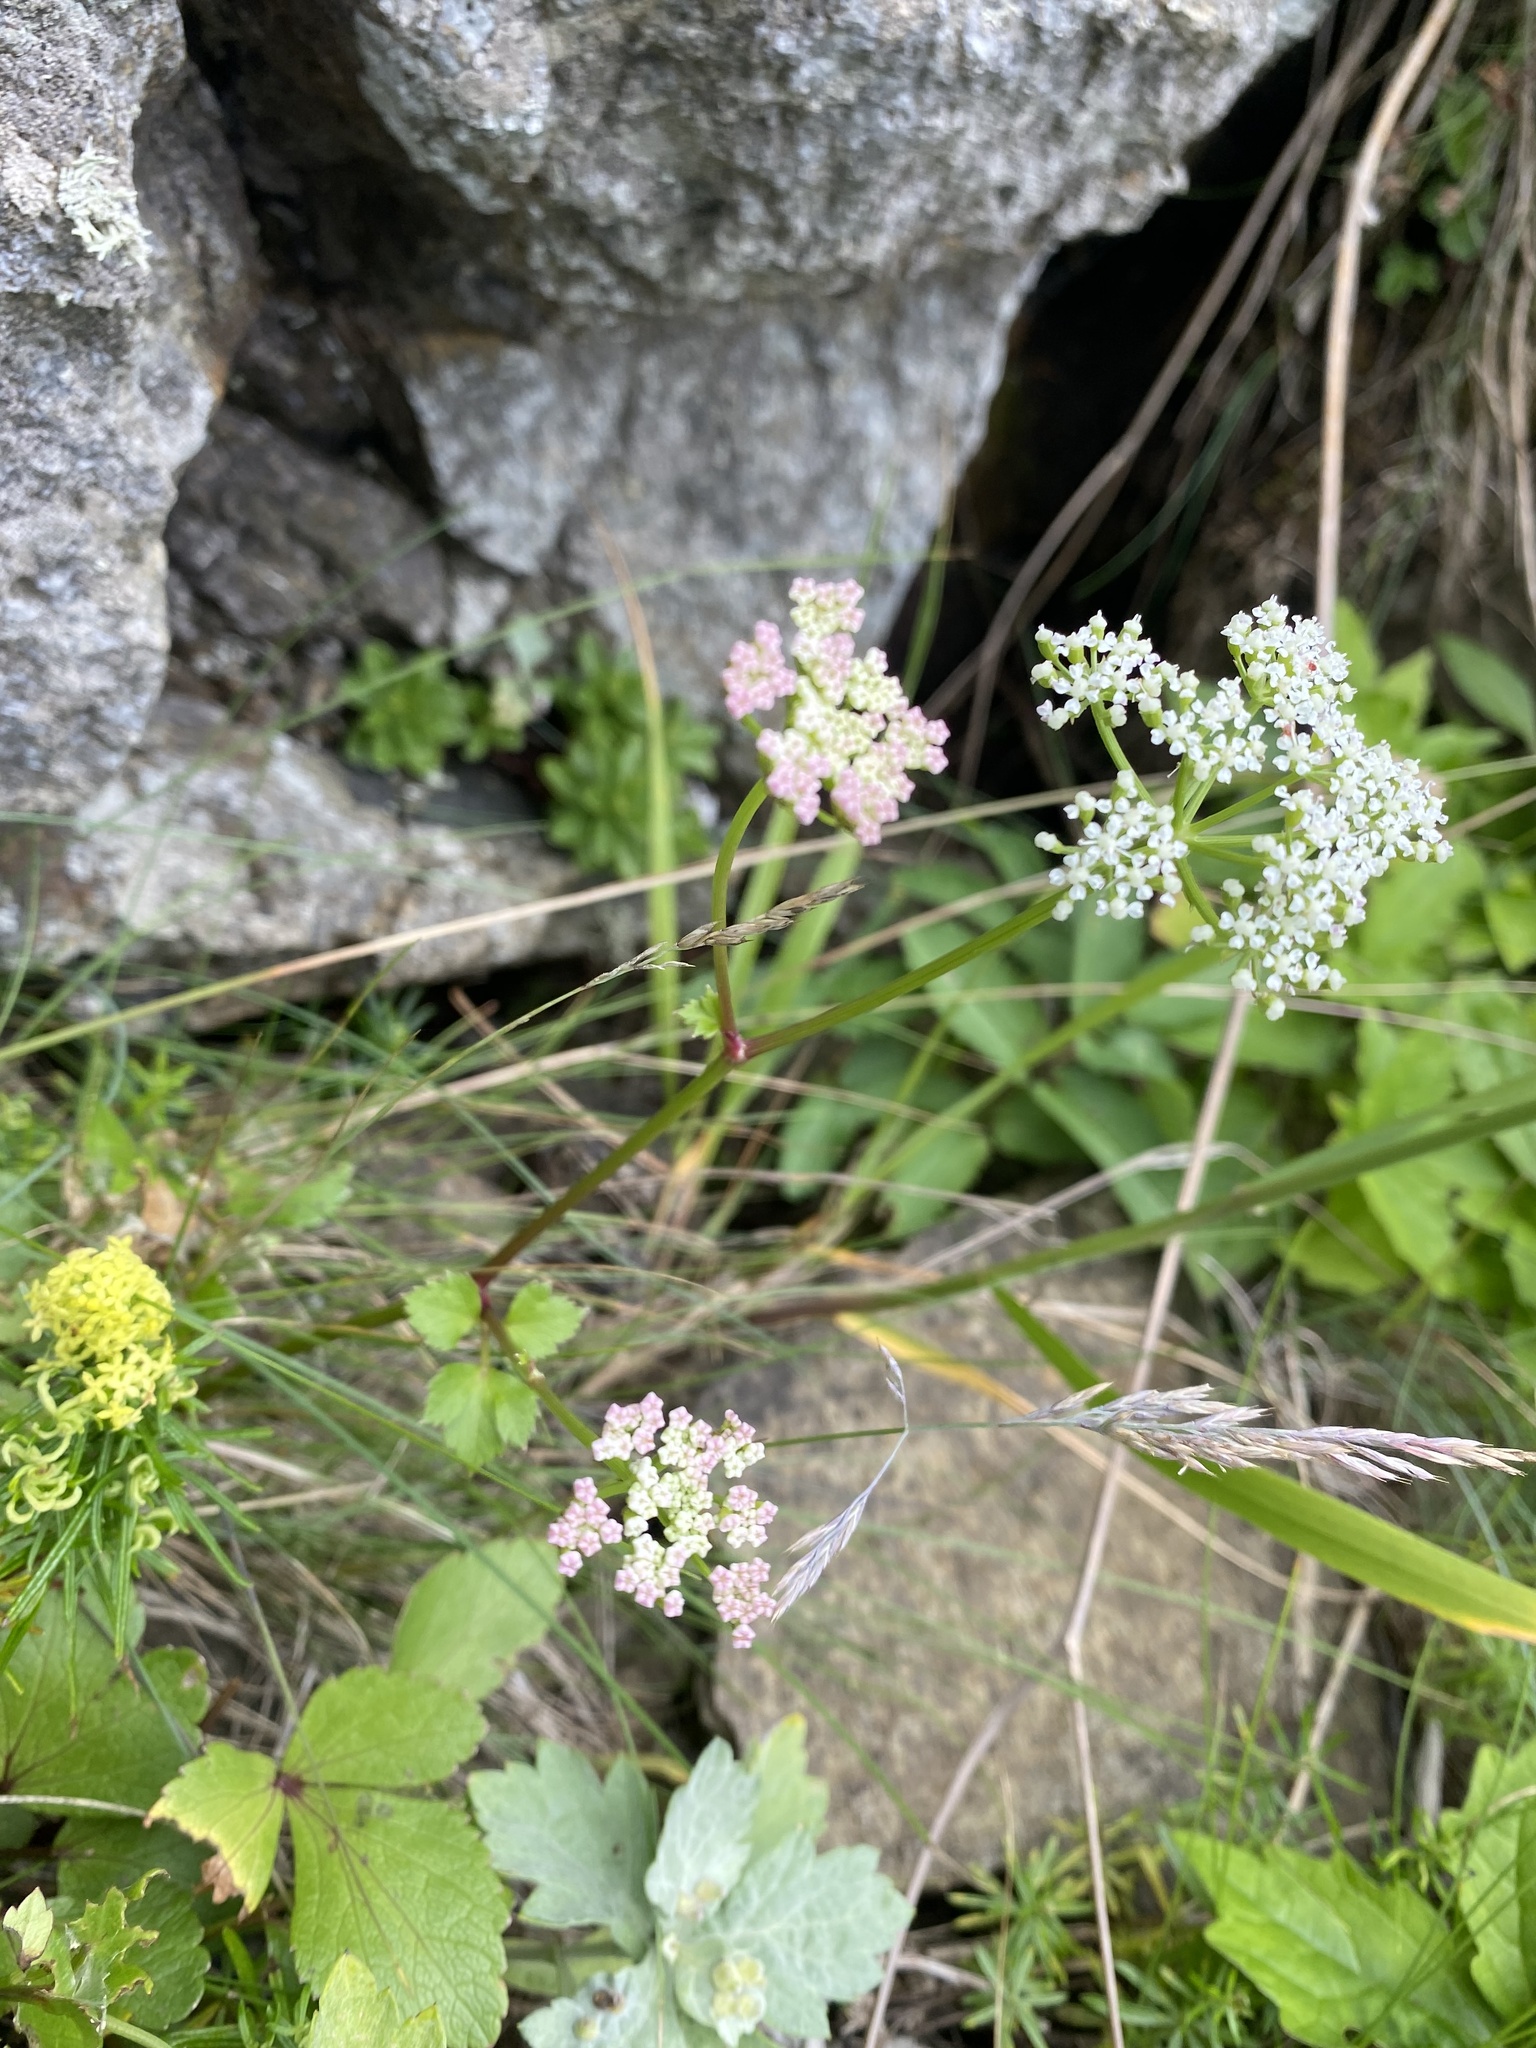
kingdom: Plantae
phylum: Tracheophyta
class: Magnoliopsida
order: Apiales
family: Apiaceae
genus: Ligusticum
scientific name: Ligusticum scothicum
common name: Beach lovage
